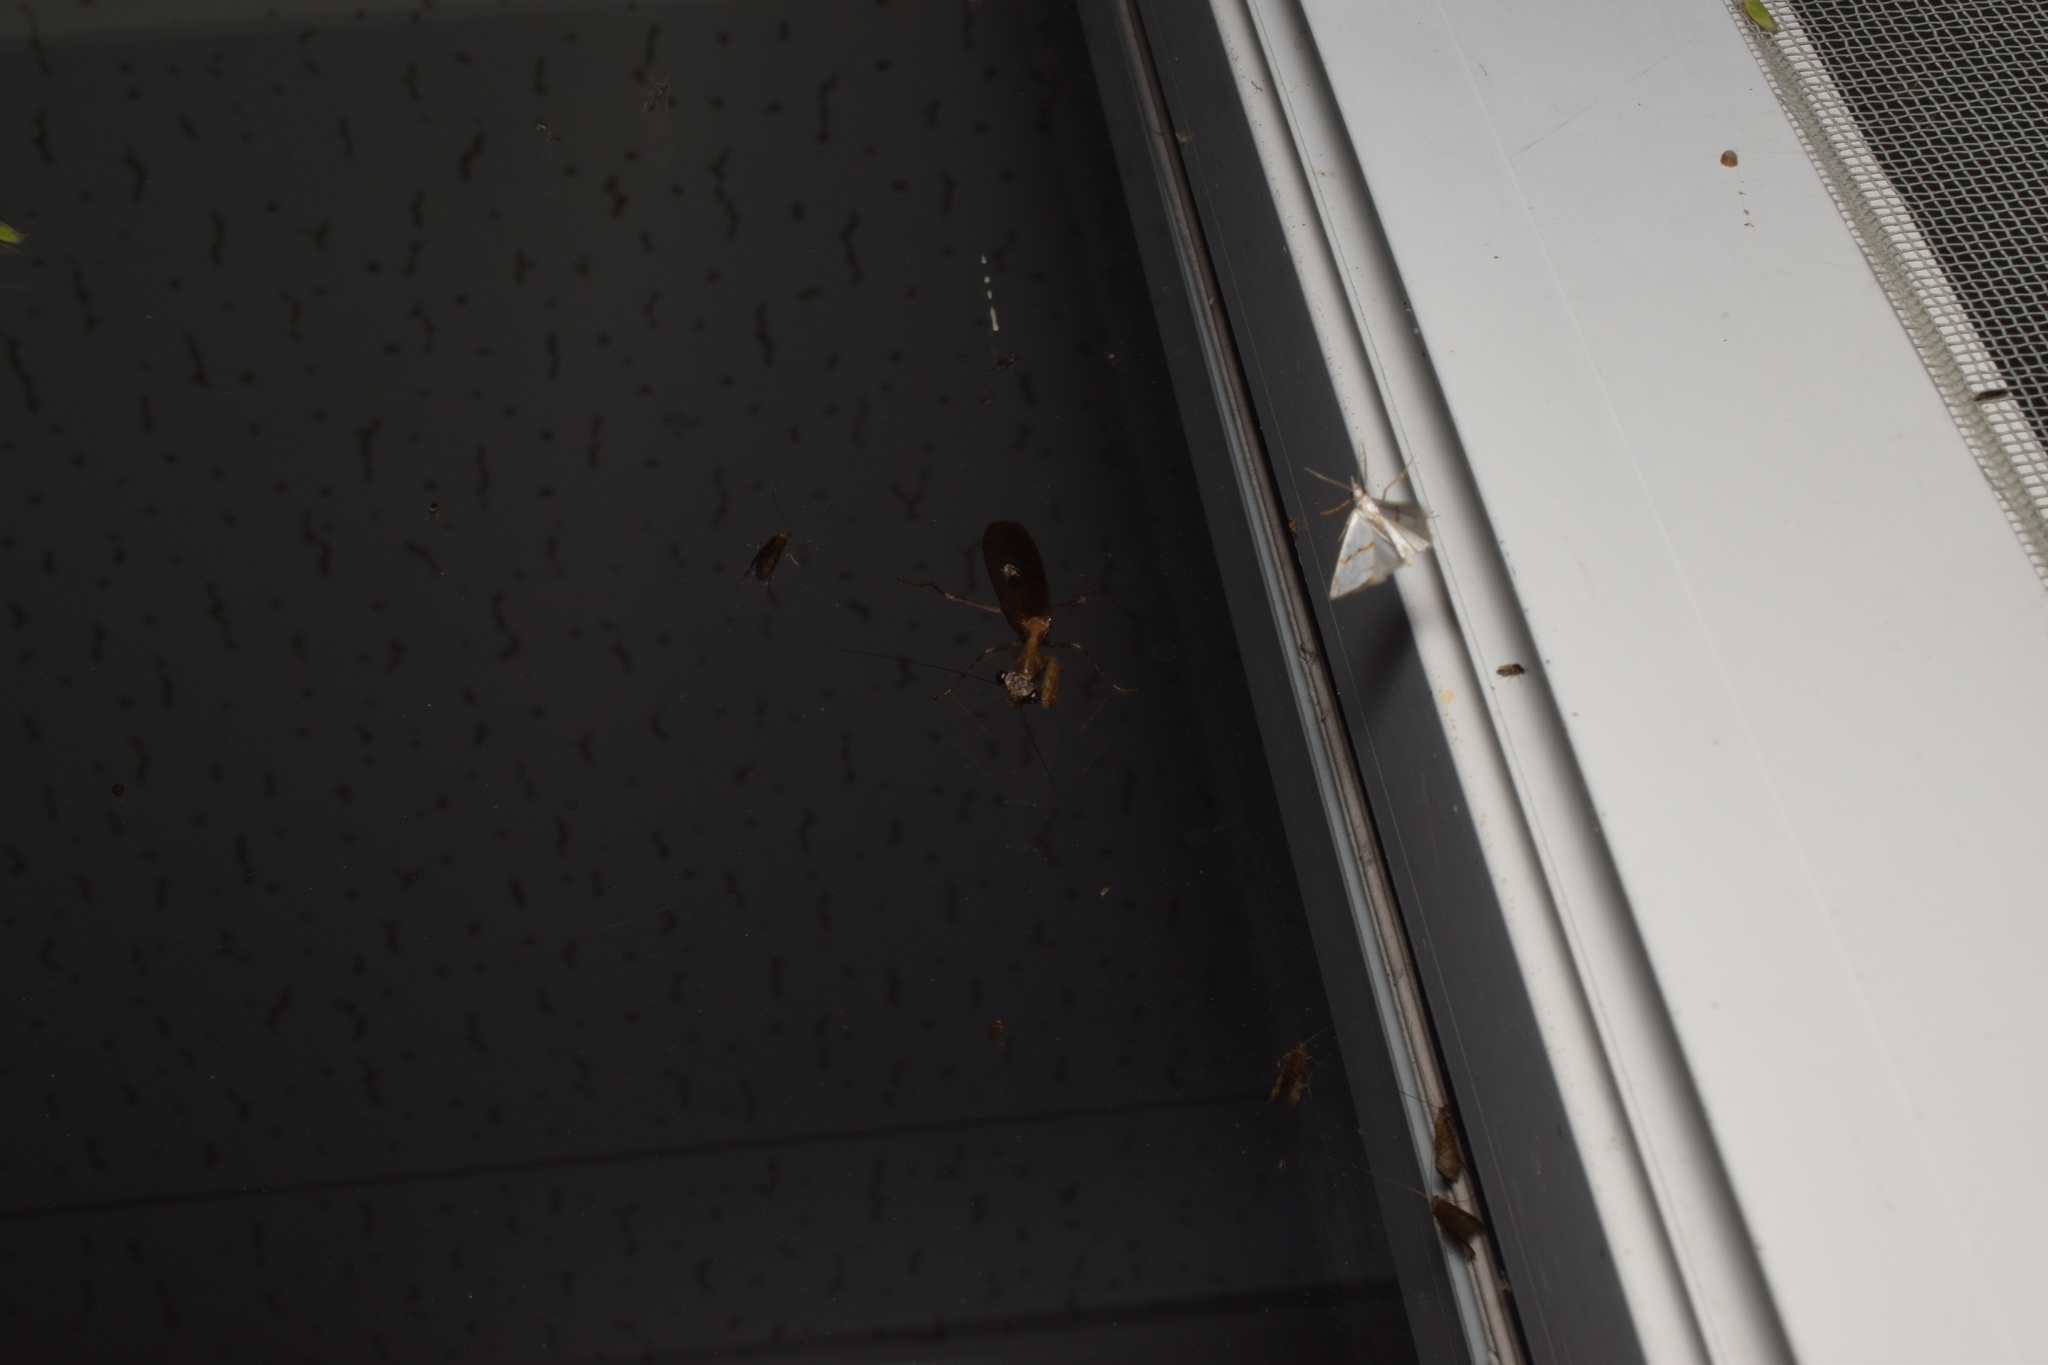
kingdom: Animalia
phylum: Arthropoda
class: Insecta
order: Mantodea
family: Hymenopodidae
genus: Acromantis
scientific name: Acromantis satsumensis
